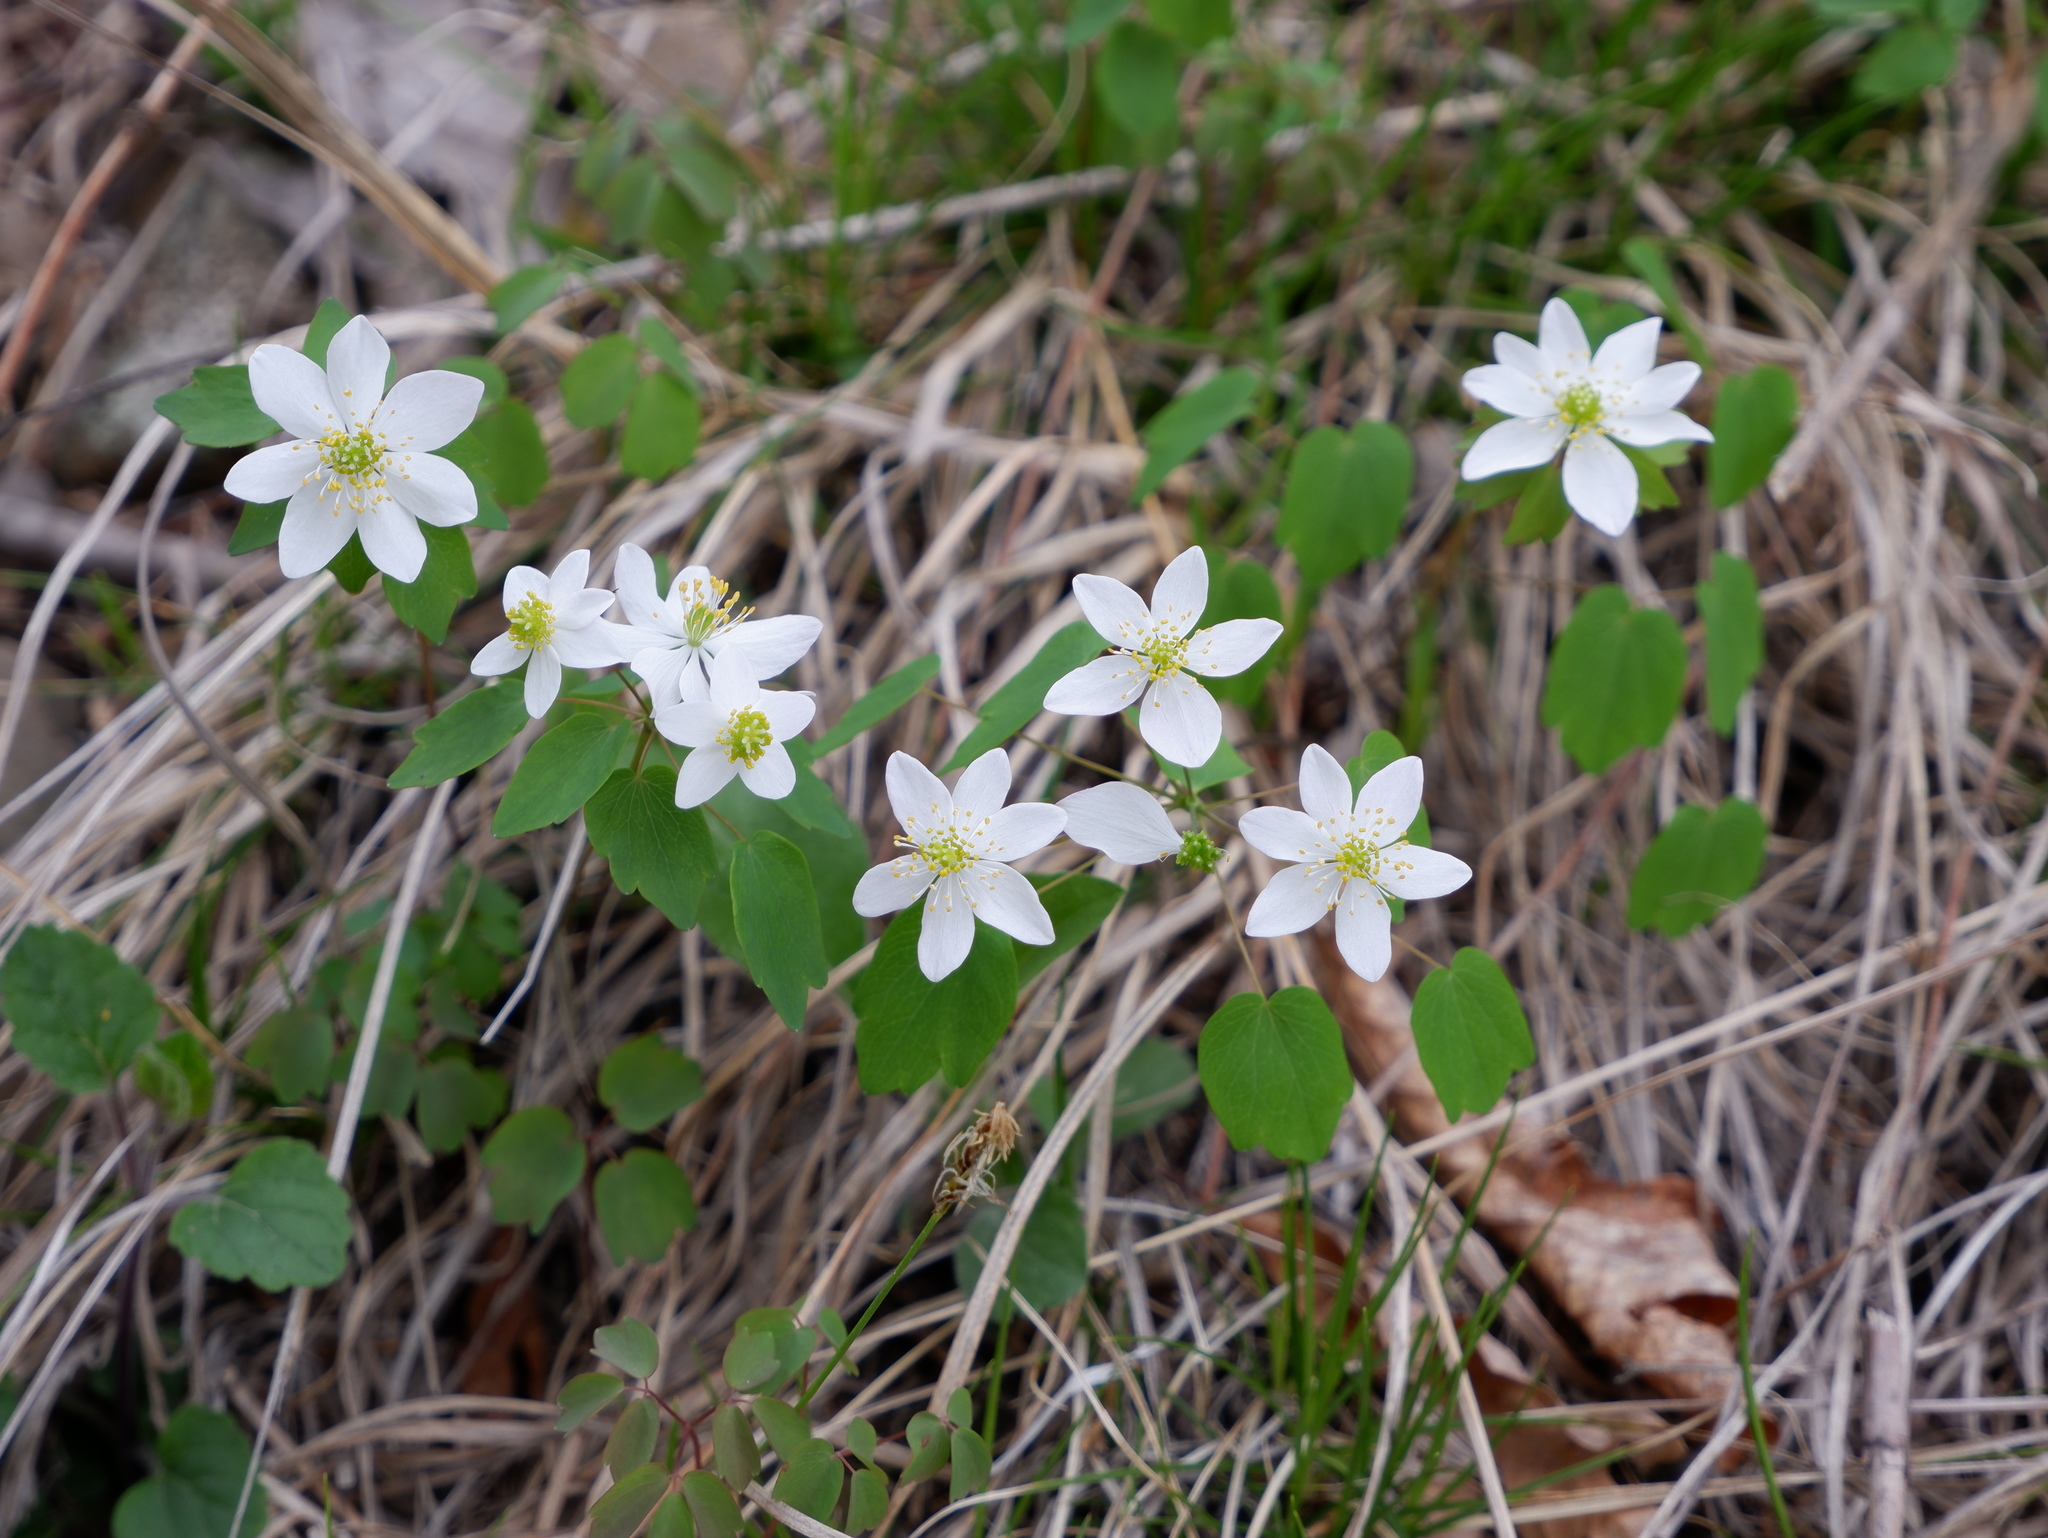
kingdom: Plantae
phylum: Tracheophyta
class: Magnoliopsida
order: Ranunculales
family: Ranunculaceae
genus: Thalictrum
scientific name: Thalictrum thalictroides
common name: Rue-anemone
